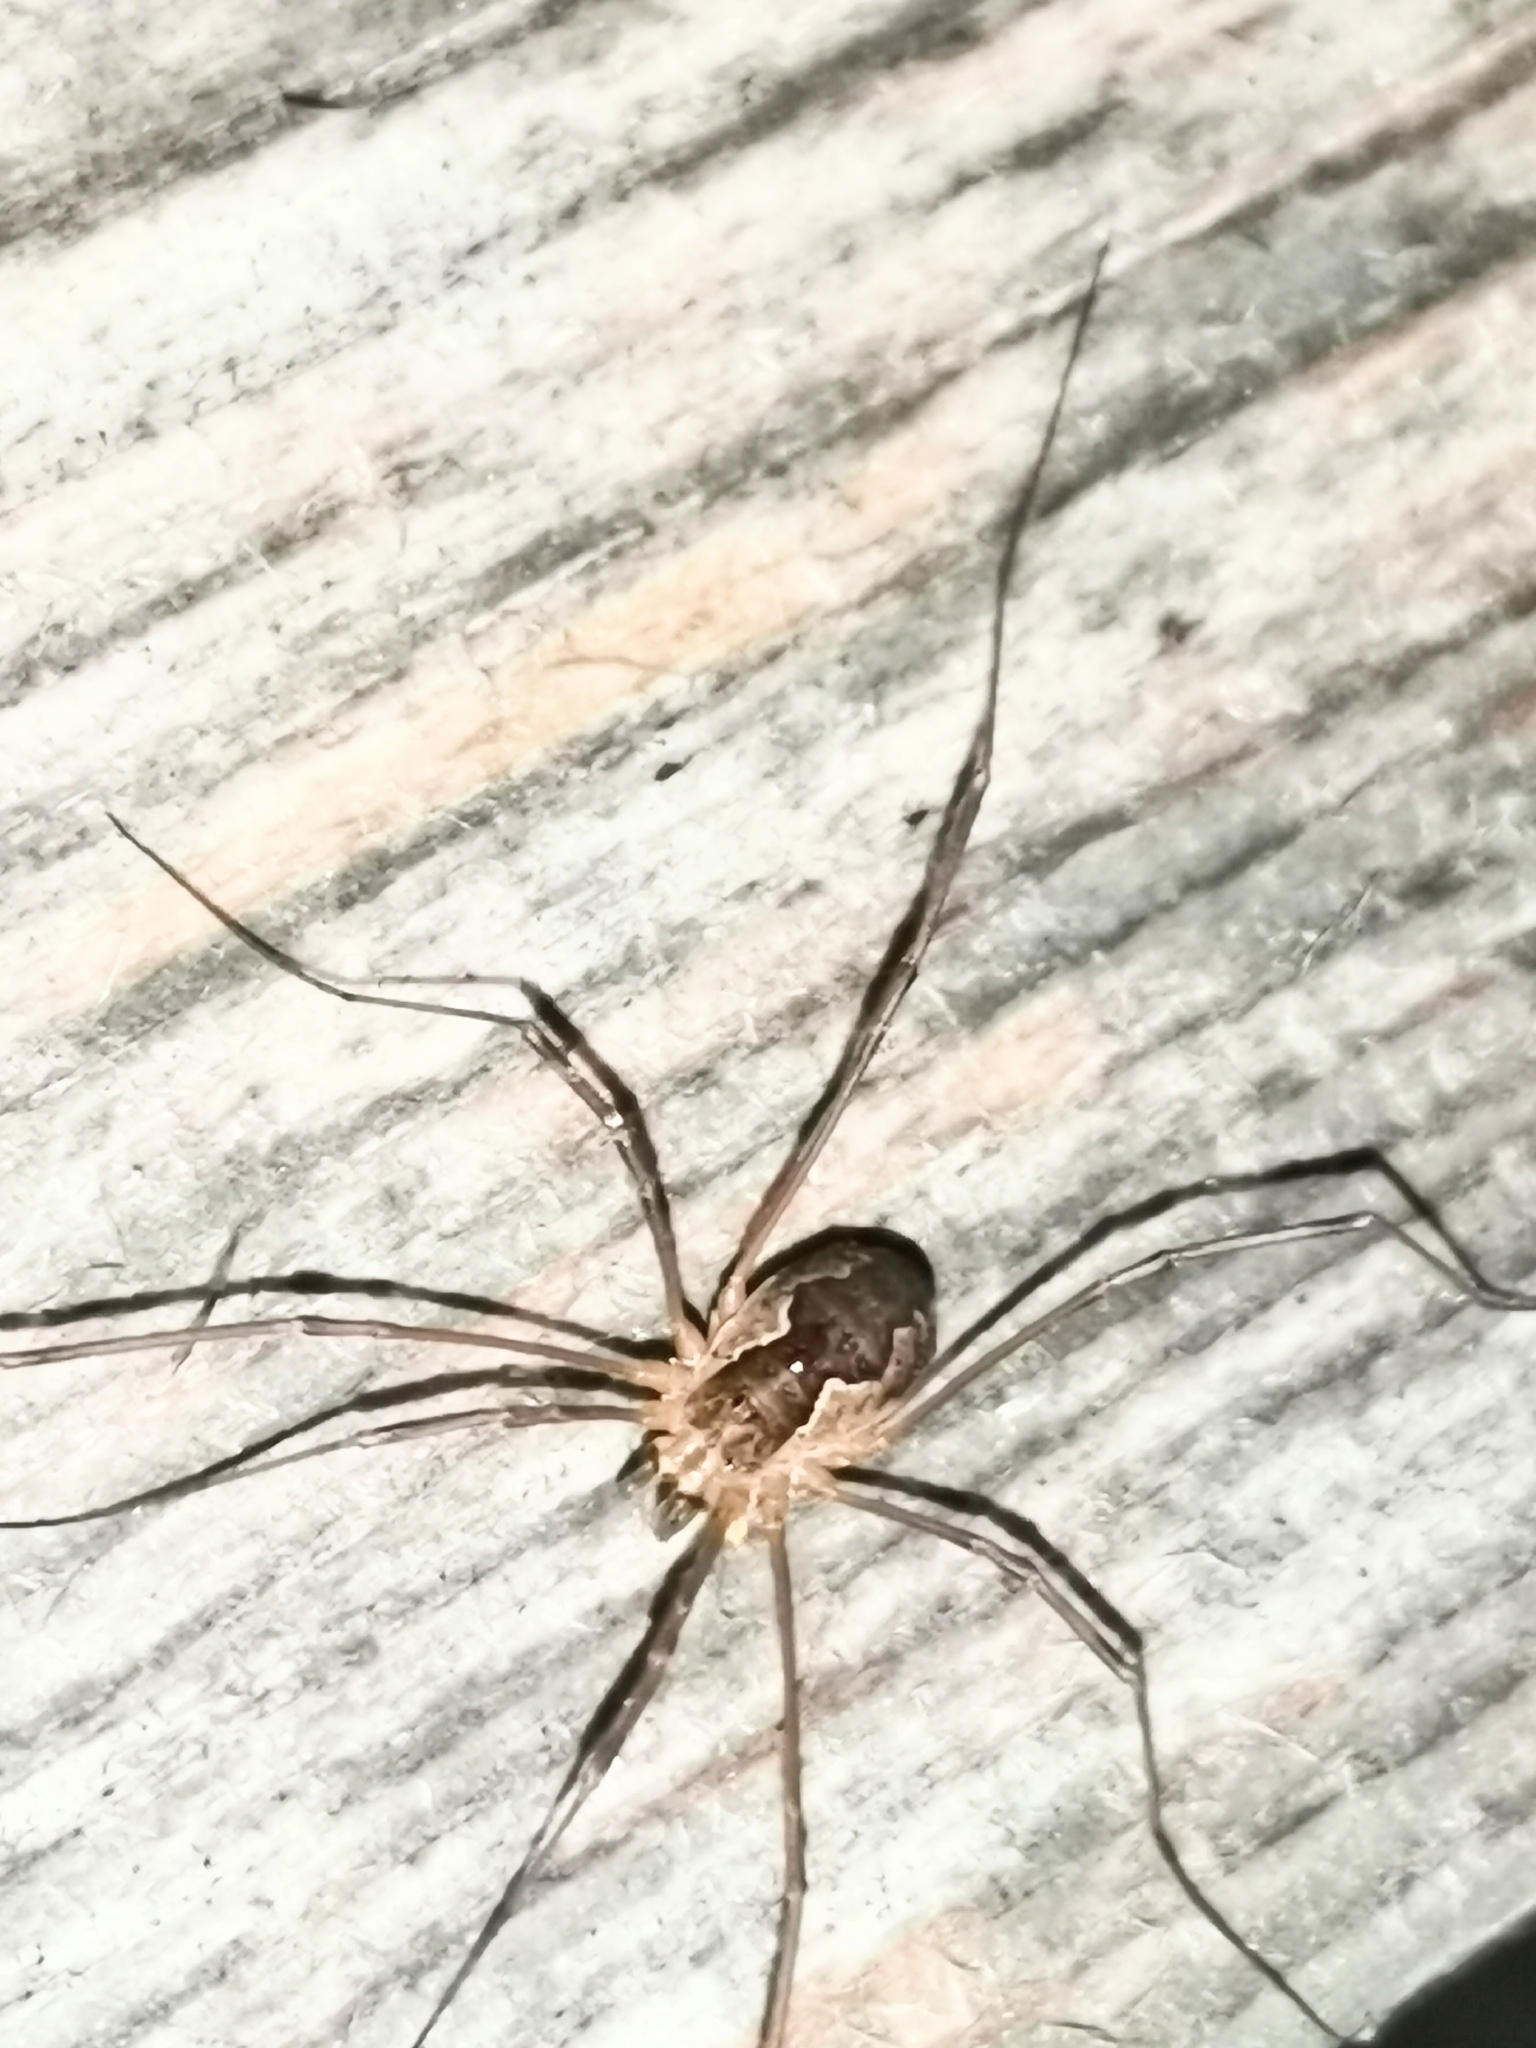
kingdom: Animalia
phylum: Arthropoda
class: Arachnida
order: Opiliones
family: Phalangiidae
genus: Mitopus
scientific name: Mitopus morio
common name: Saddleback harvestman
